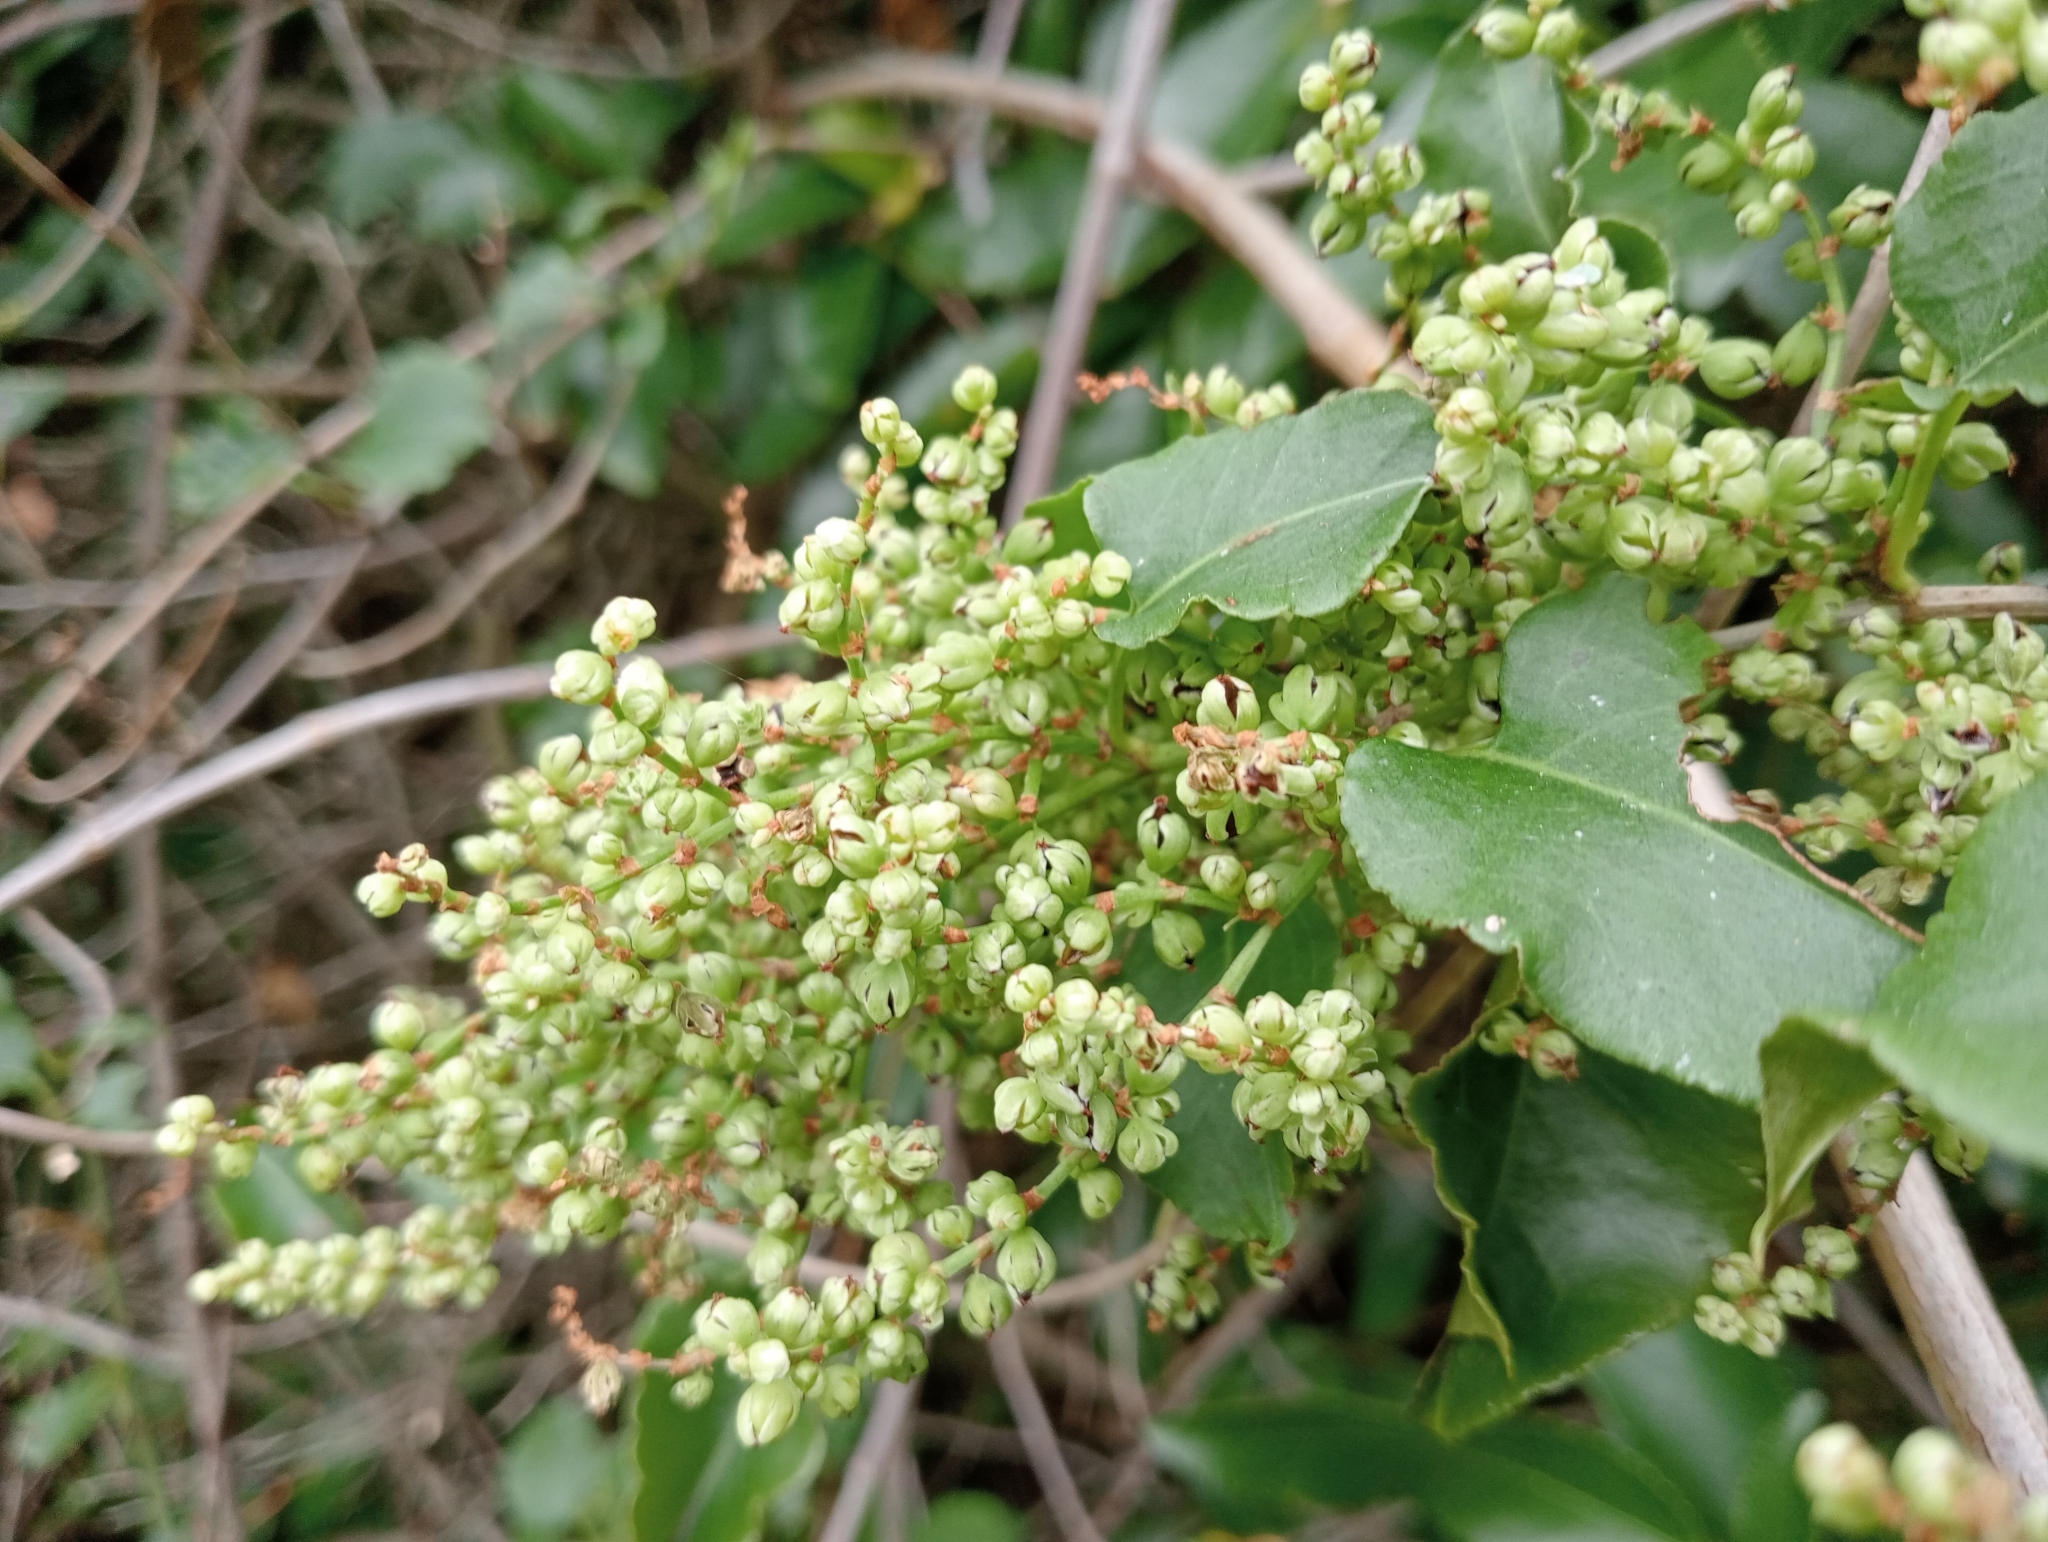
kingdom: Plantae
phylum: Tracheophyta
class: Magnoliopsida
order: Caryophyllales
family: Polygonaceae
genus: Muehlenbeckia
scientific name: Muehlenbeckia australis
